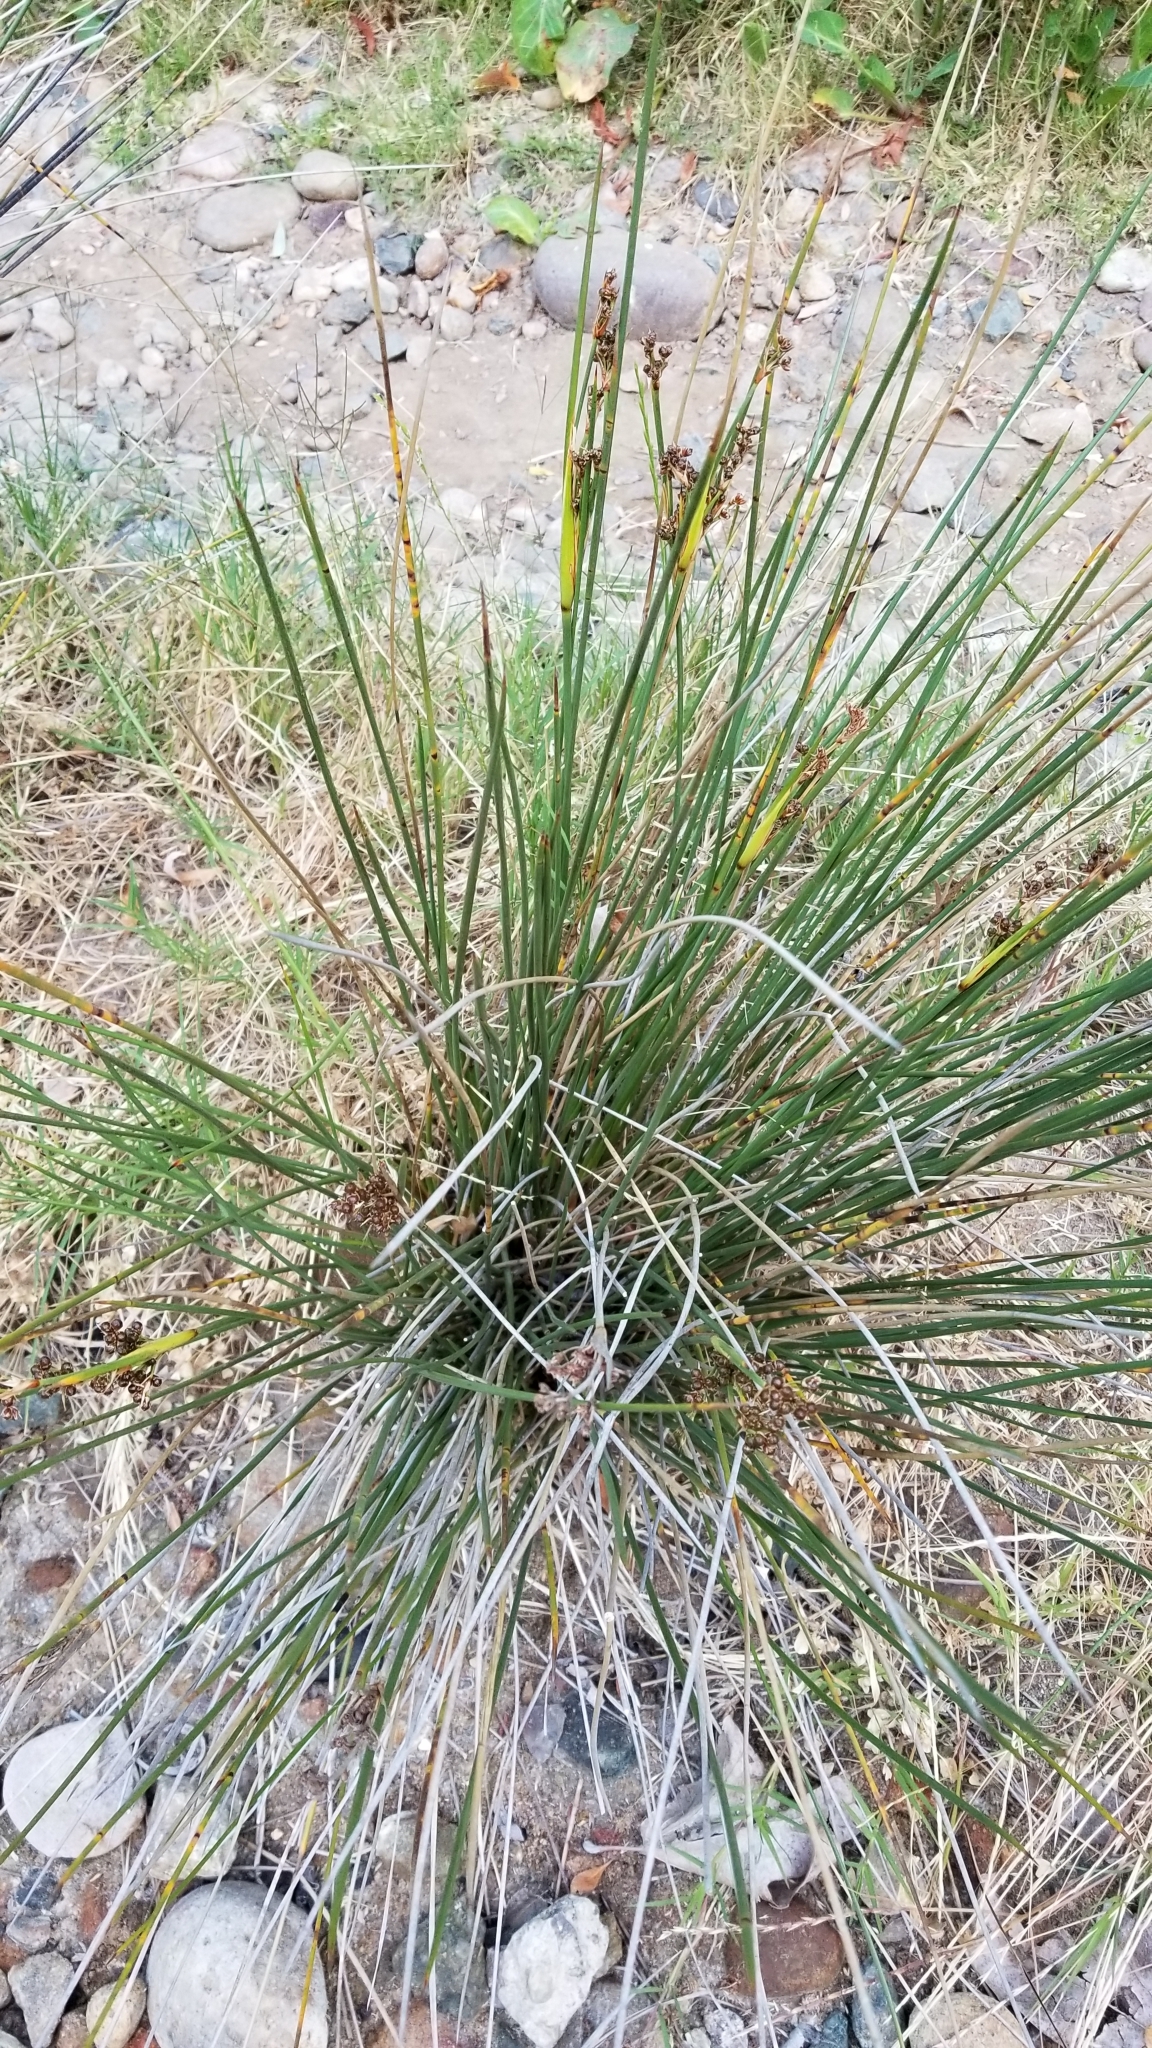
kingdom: Plantae
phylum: Tracheophyta
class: Liliopsida
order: Poales
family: Juncaceae
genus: Juncus
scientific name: Juncus acutus
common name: Sharp rush
